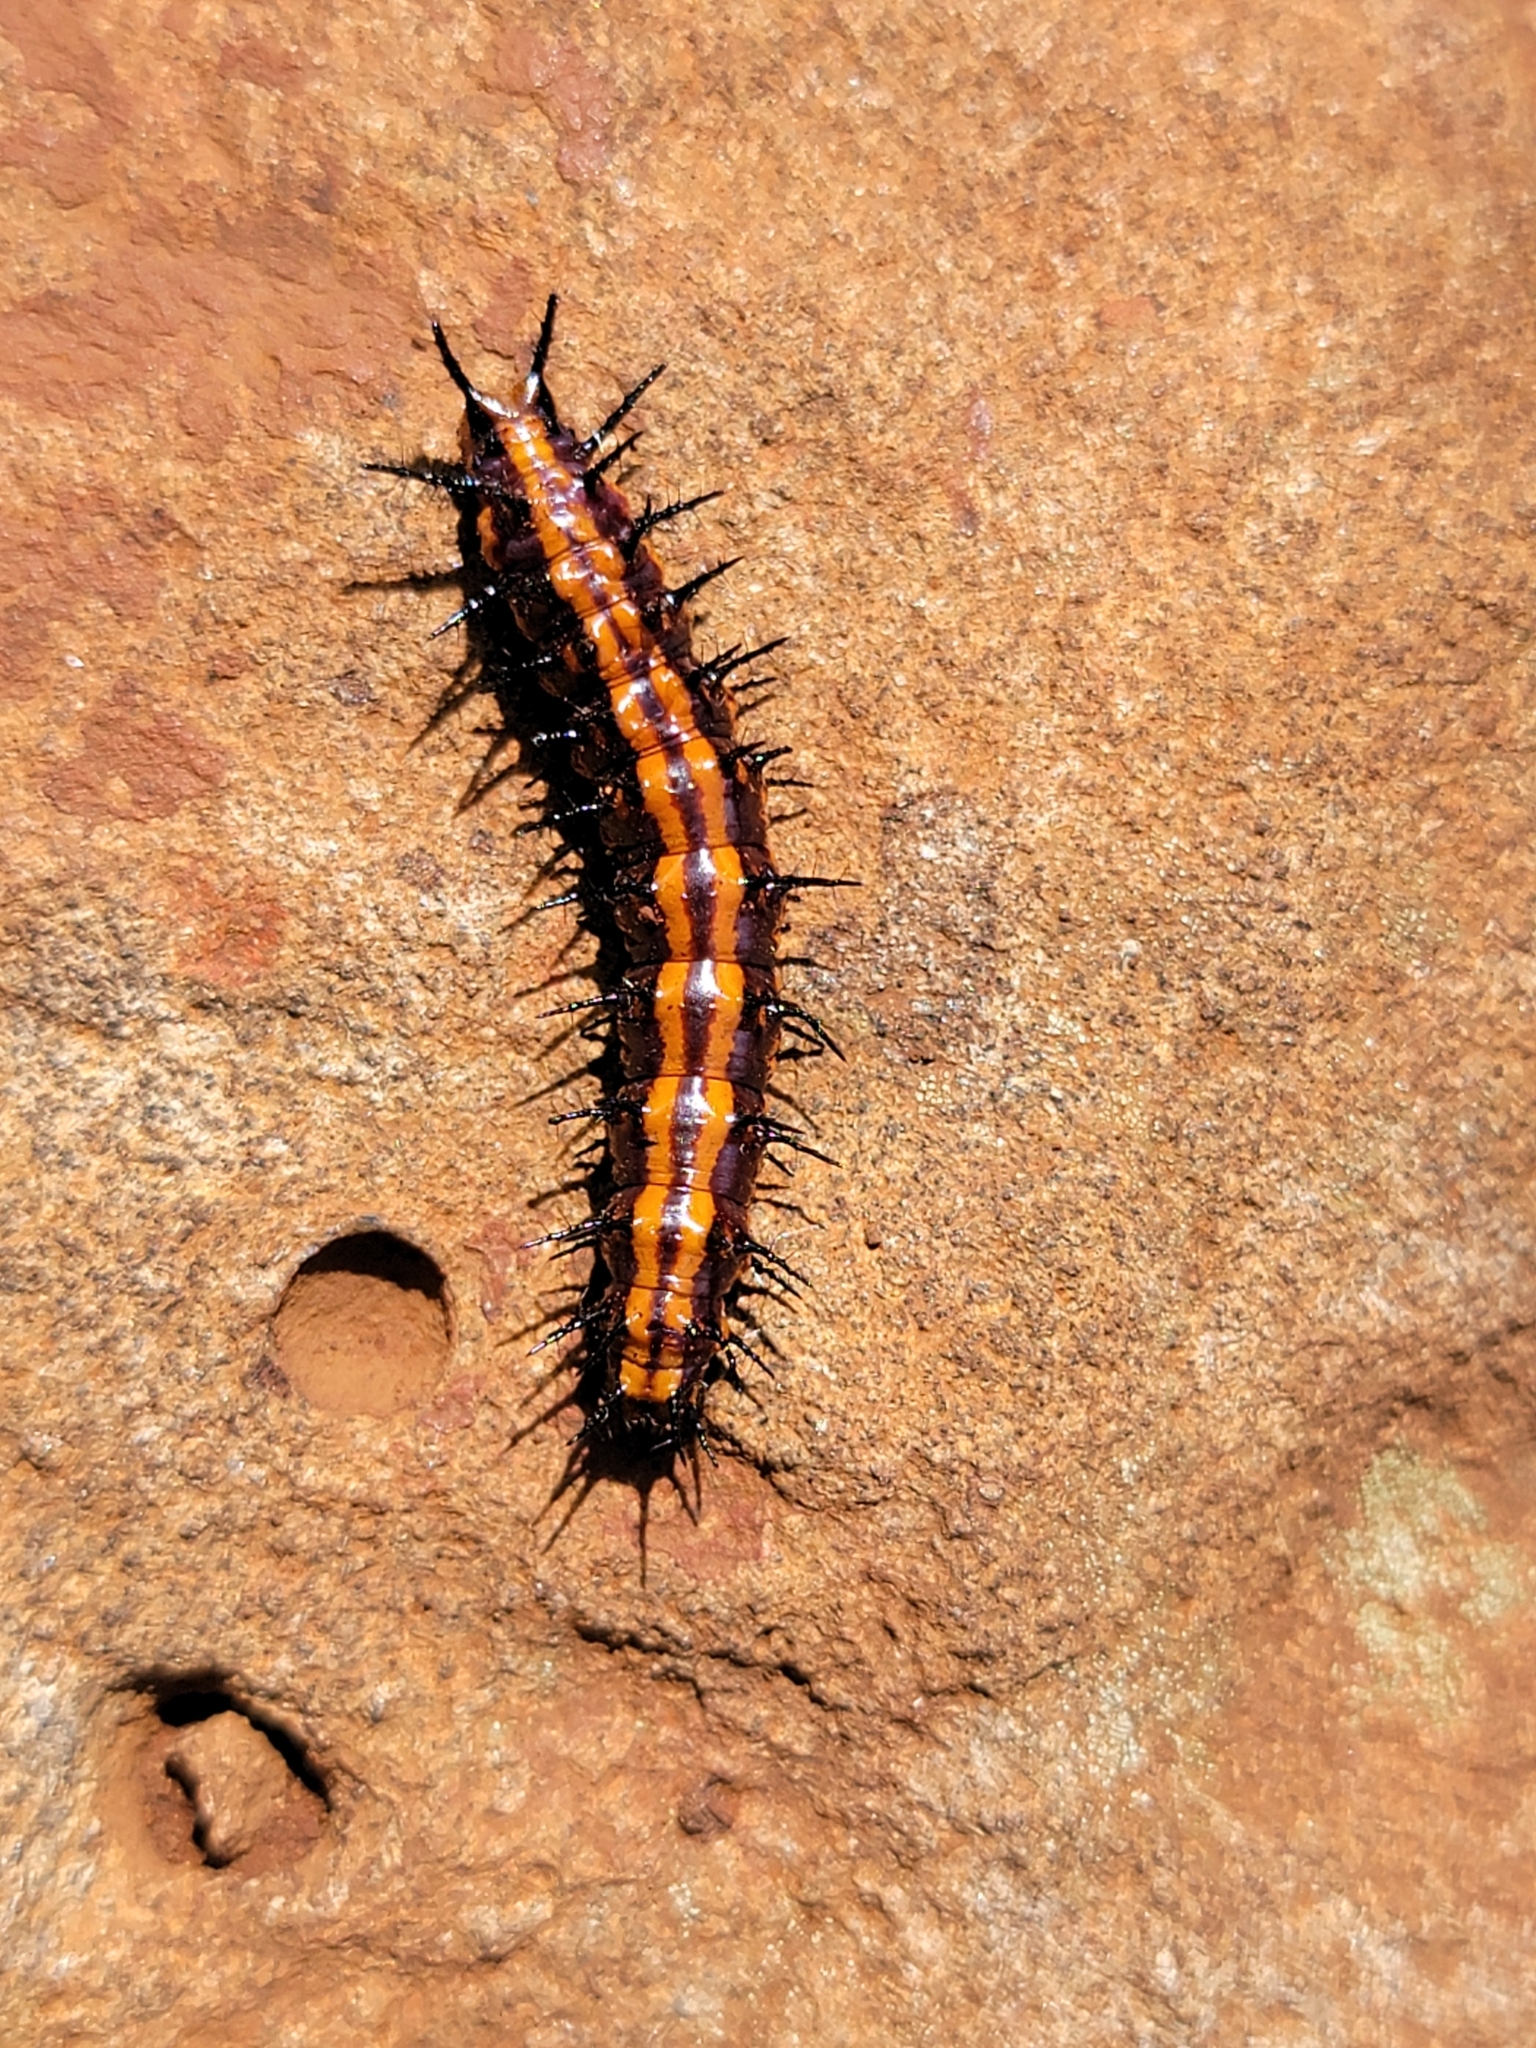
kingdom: Animalia
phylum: Arthropoda
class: Insecta
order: Lepidoptera
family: Nymphalidae
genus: Dione
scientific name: Dione vanillae
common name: Gulf fritillary
